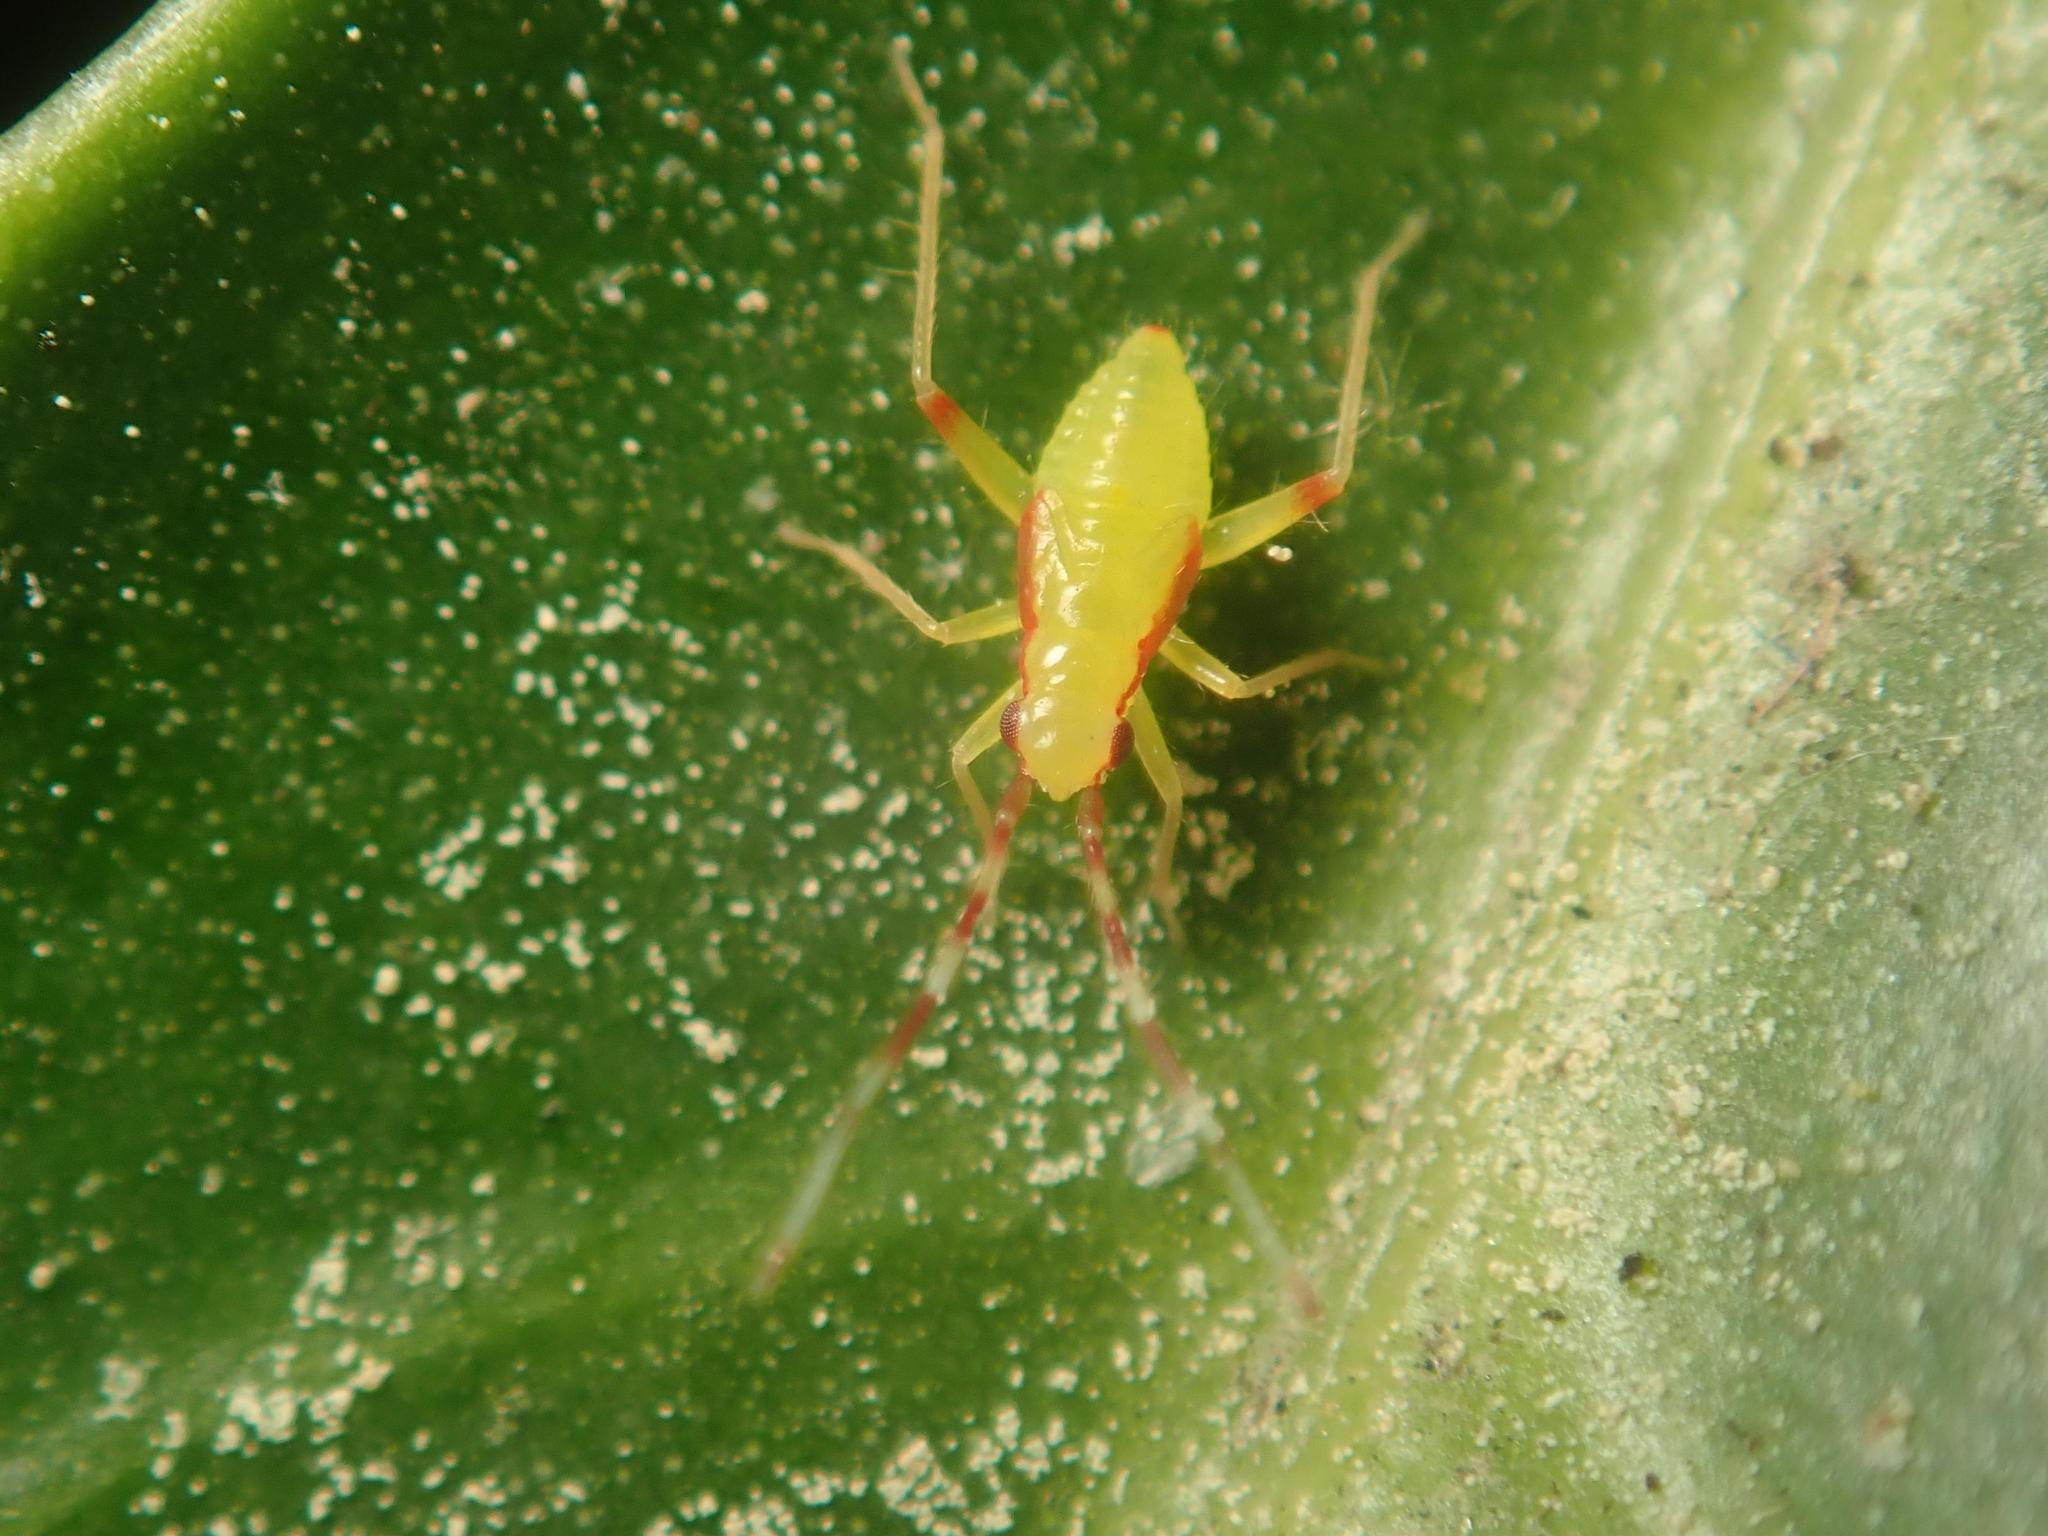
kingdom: Animalia
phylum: Arthropoda
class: Insecta
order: Hemiptera
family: Miridae
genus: Campyloneura
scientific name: Campyloneura virgula
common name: Predatory bug
